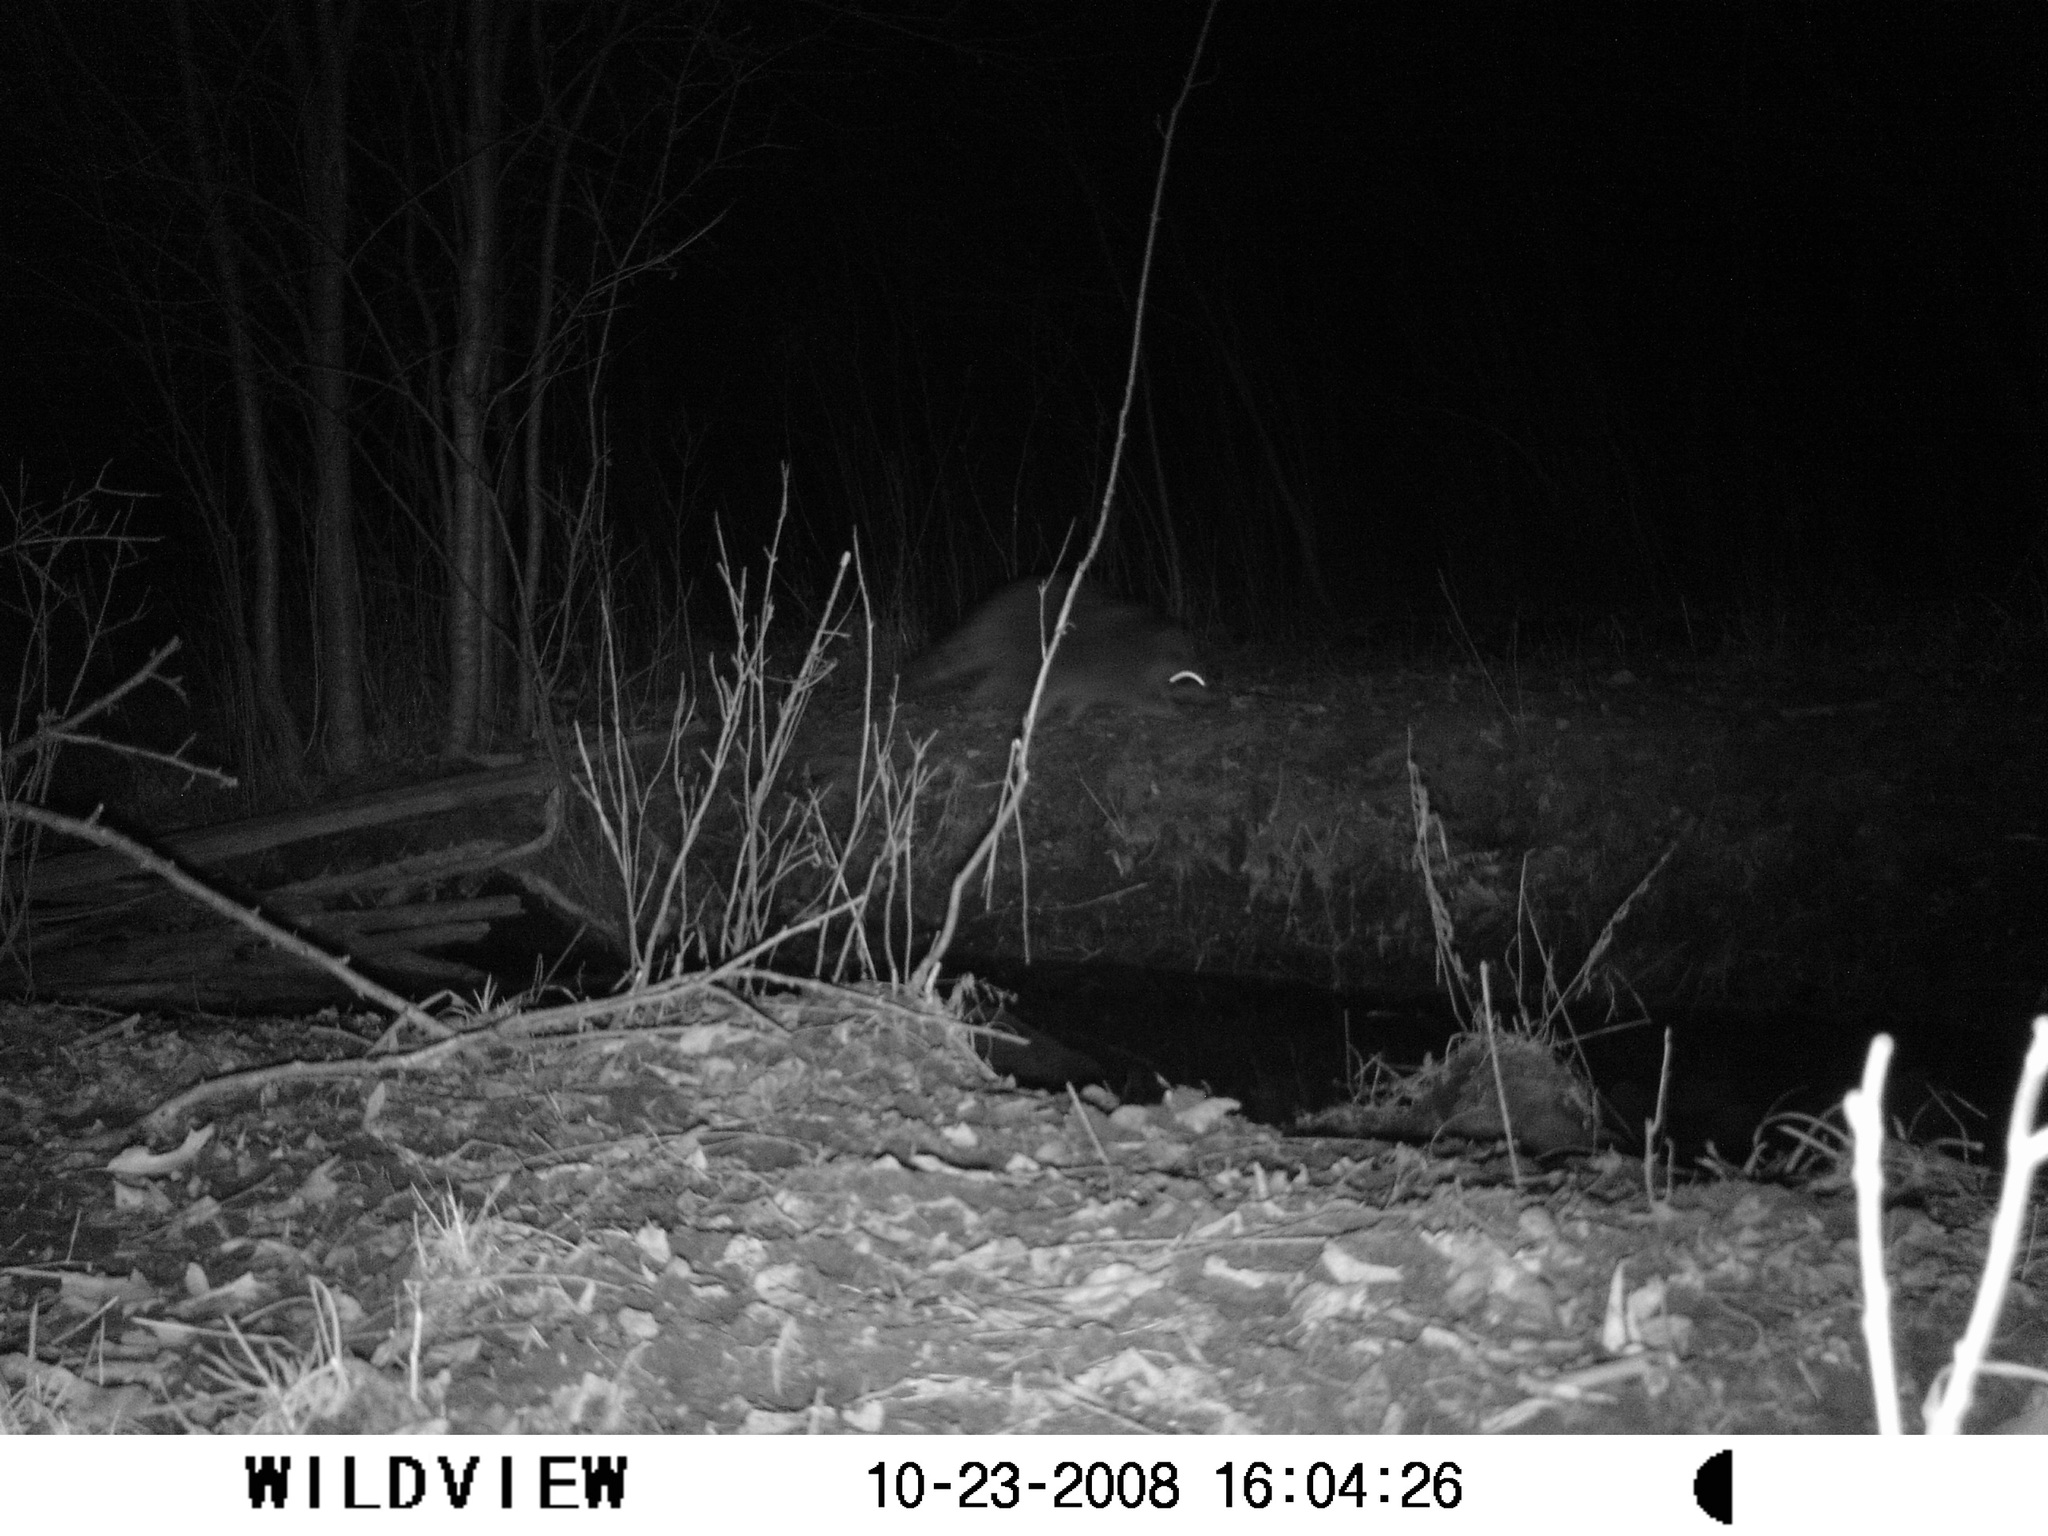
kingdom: Animalia
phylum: Chordata
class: Mammalia
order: Carnivora
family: Procyonidae
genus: Procyon
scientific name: Procyon lotor
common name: Raccoon
